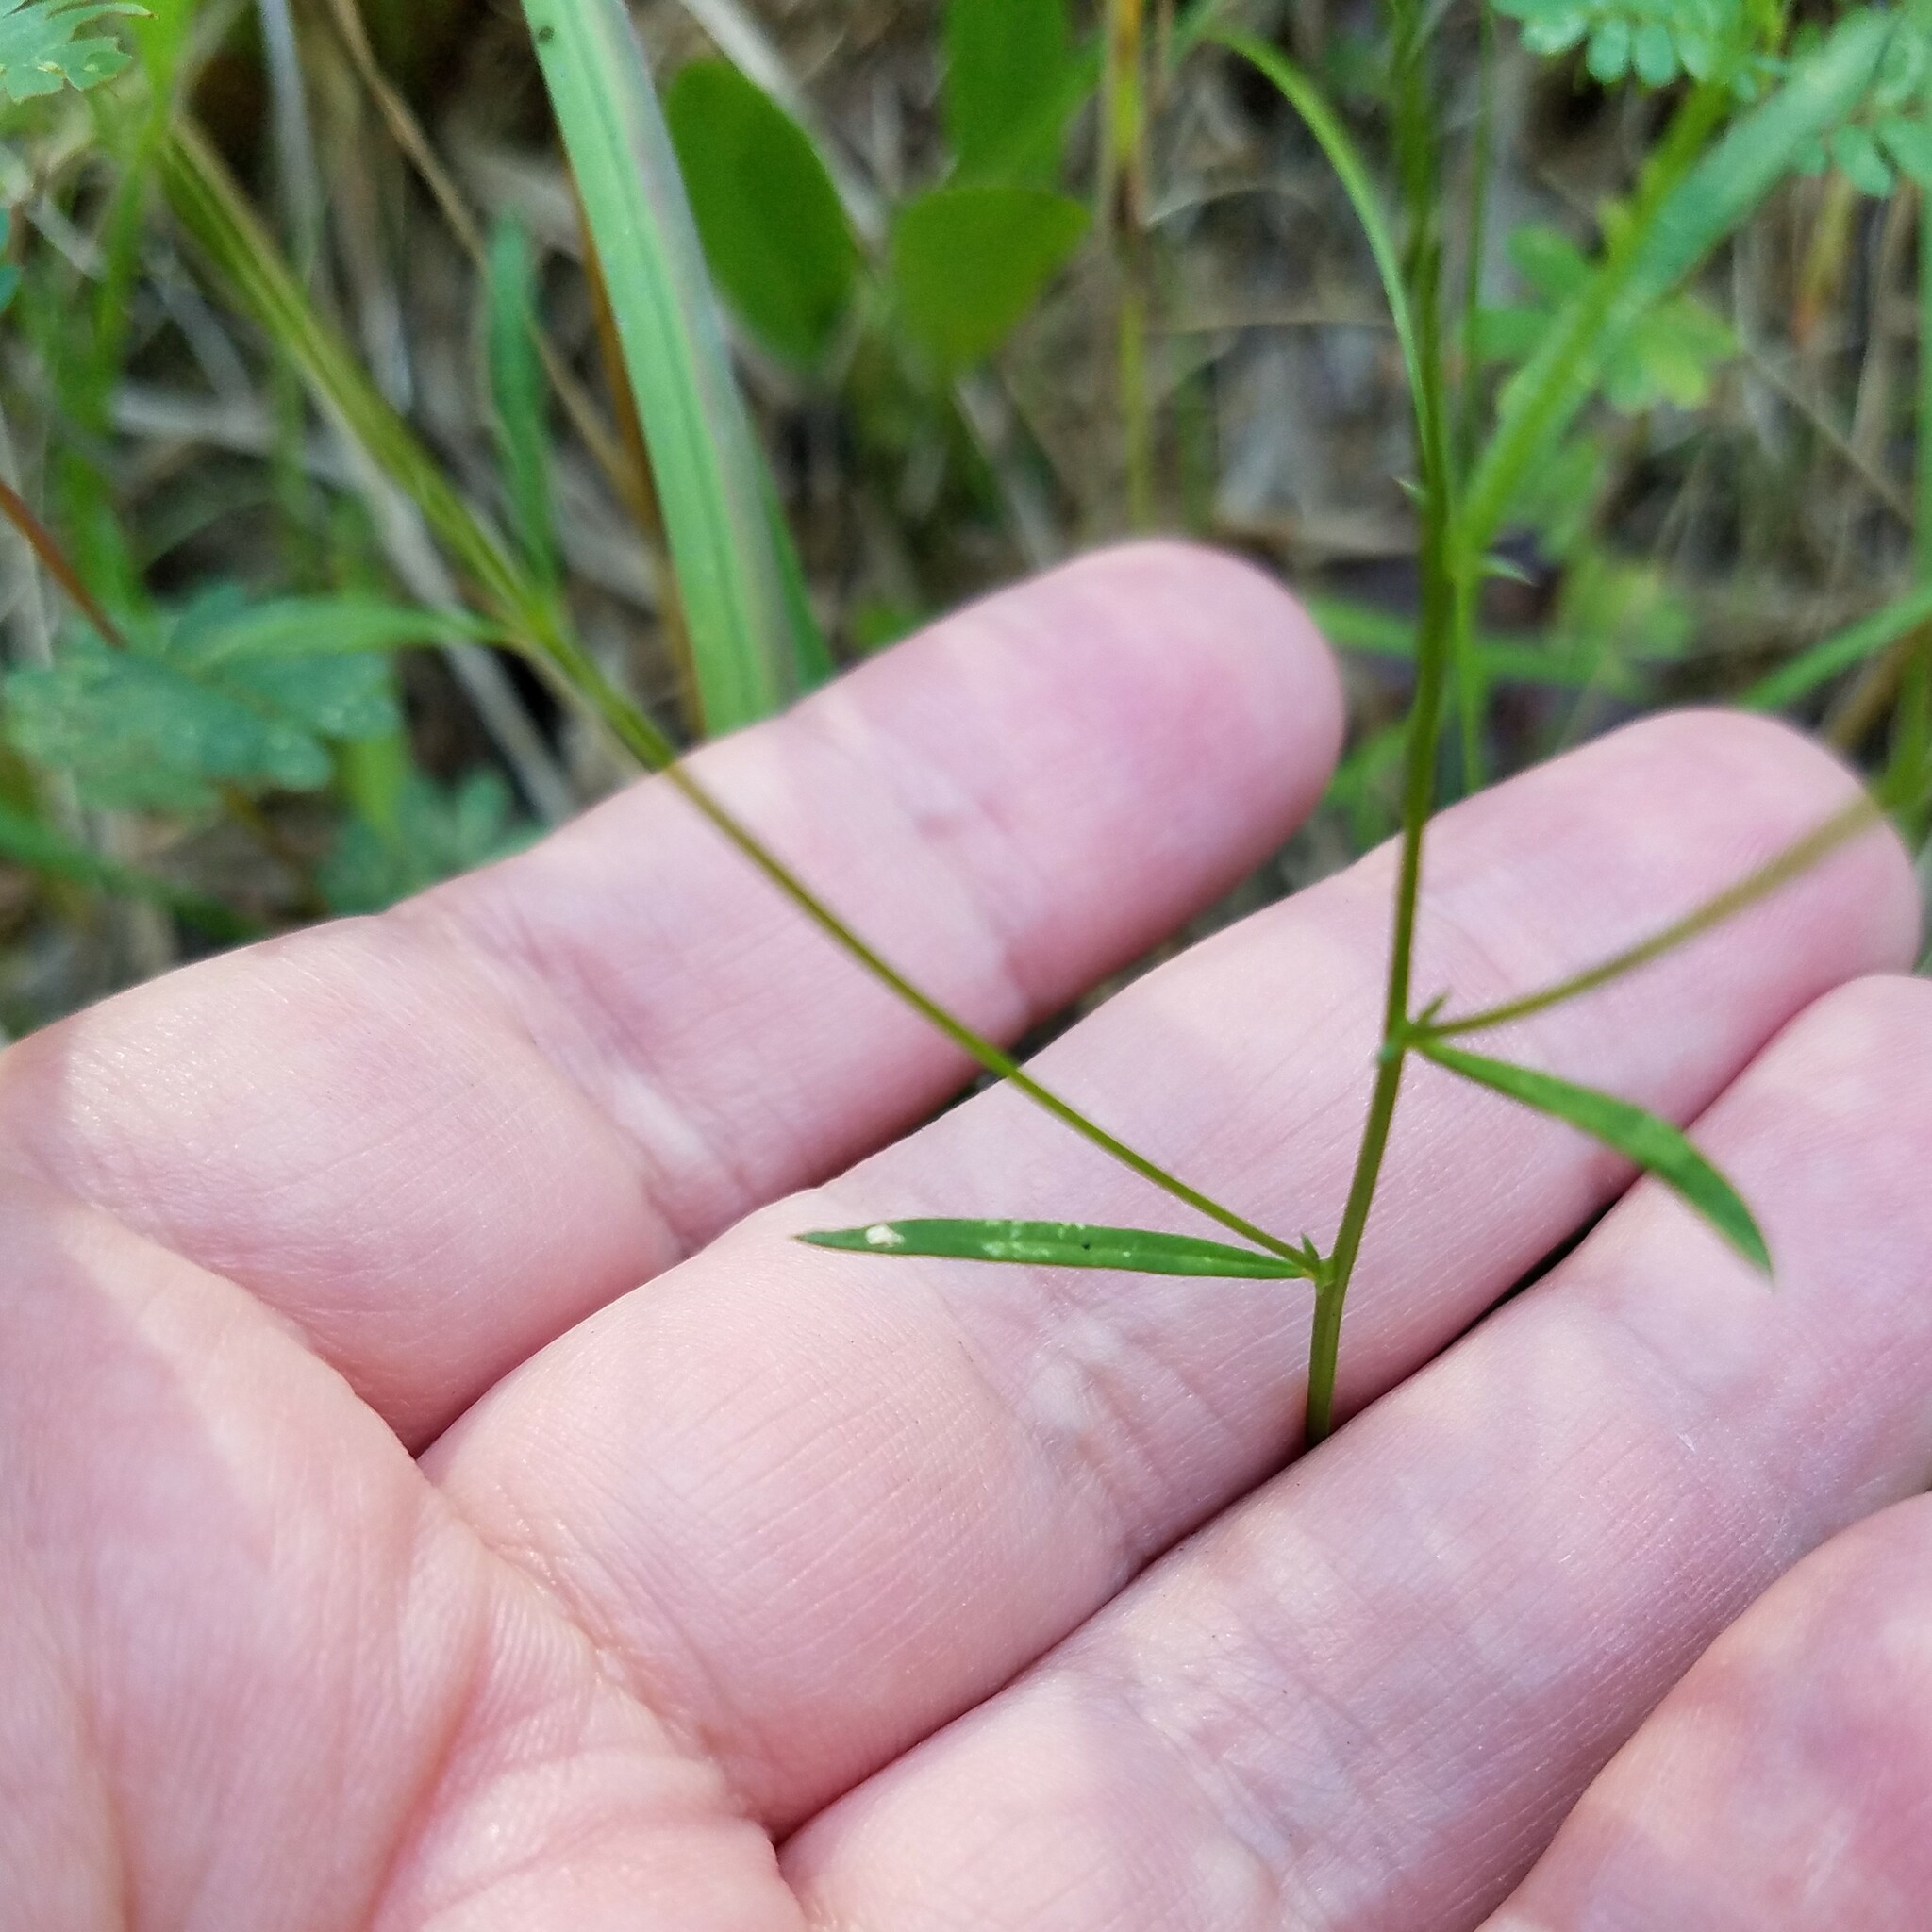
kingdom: Plantae
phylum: Tracheophyta
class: Magnoliopsida
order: Fabales
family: Polygalaceae
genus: Polygala
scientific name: Polygala verticillata
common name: Whorl milkwort
